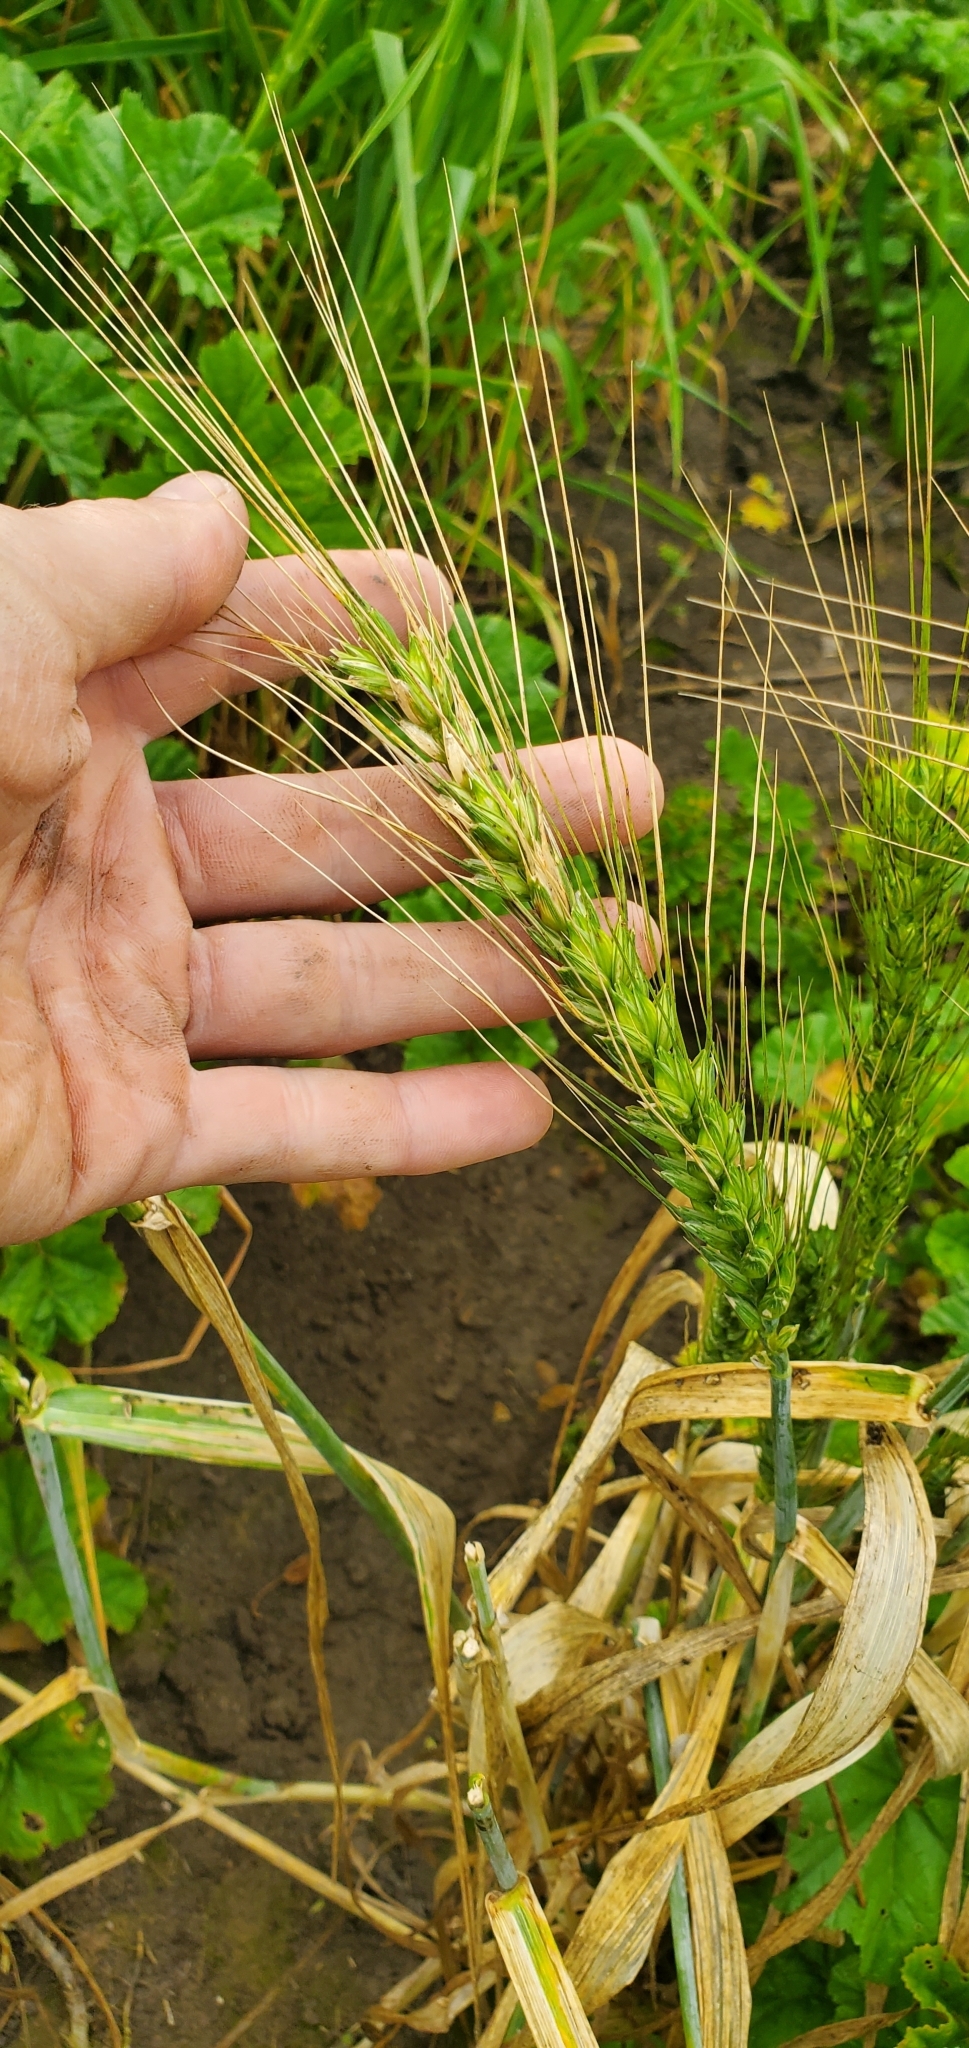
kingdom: Plantae
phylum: Tracheophyta
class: Liliopsida
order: Poales
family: Poaceae
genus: Triticum
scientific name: Triticum aestivum
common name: Common wheat
